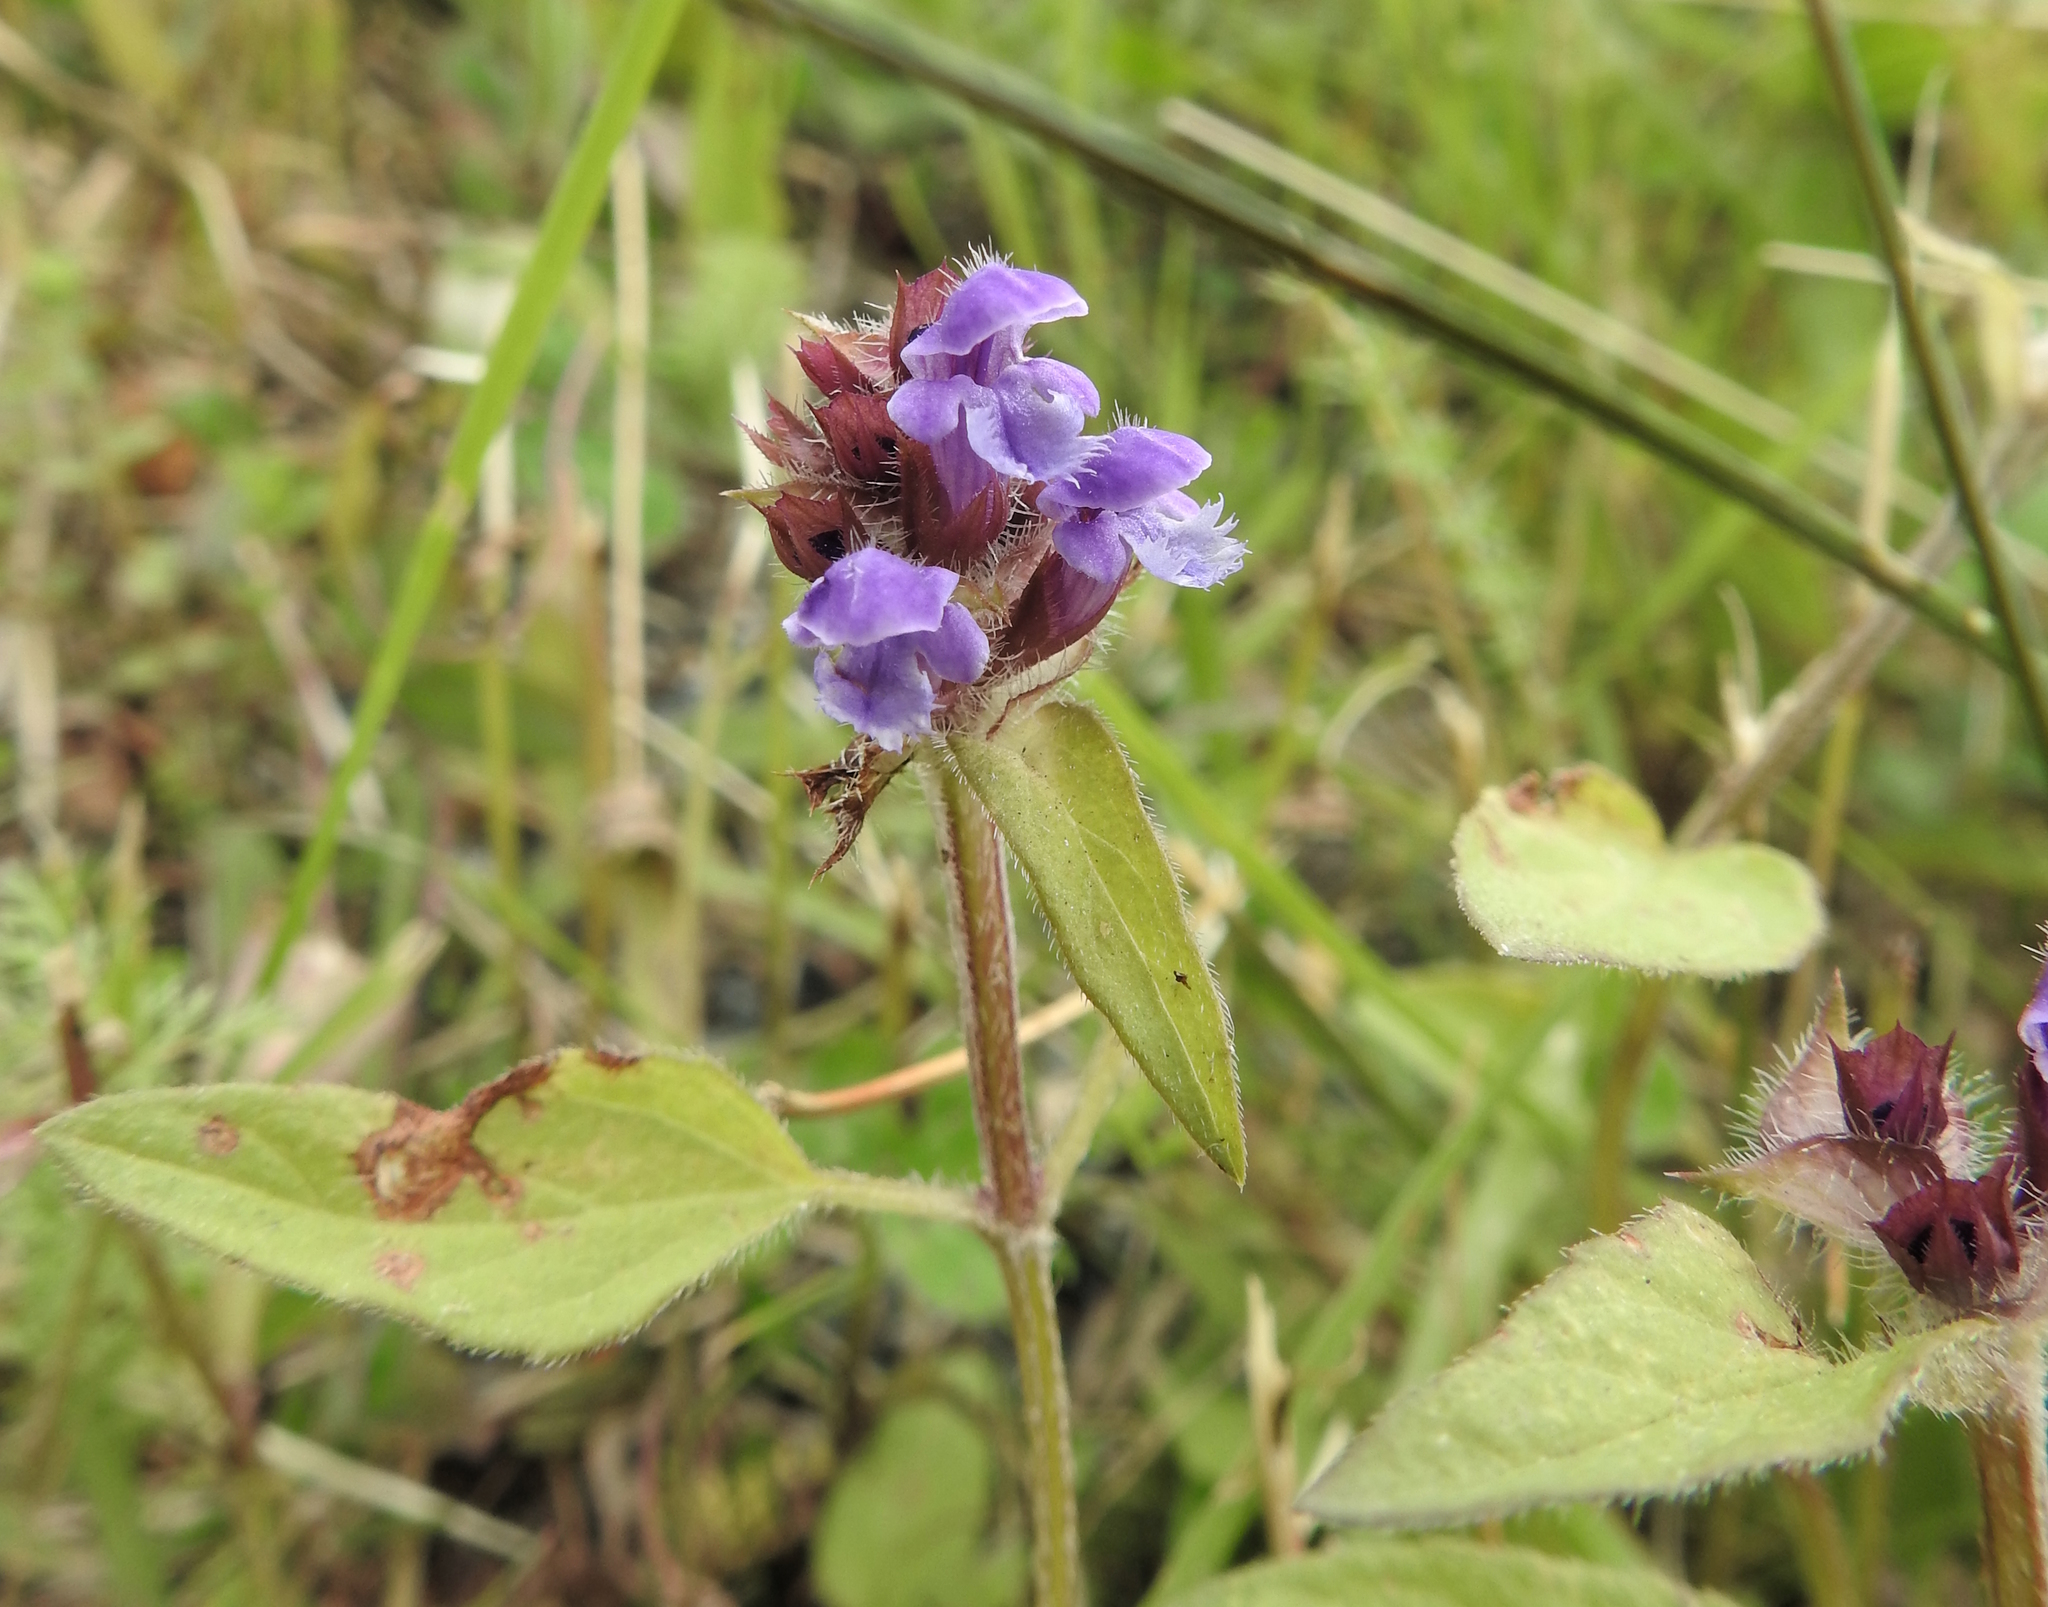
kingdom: Plantae
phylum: Tracheophyta
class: Magnoliopsida
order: Lamiales
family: Lamiaceae
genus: Prunella
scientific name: Prunella vulgaris
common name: Heal-all
